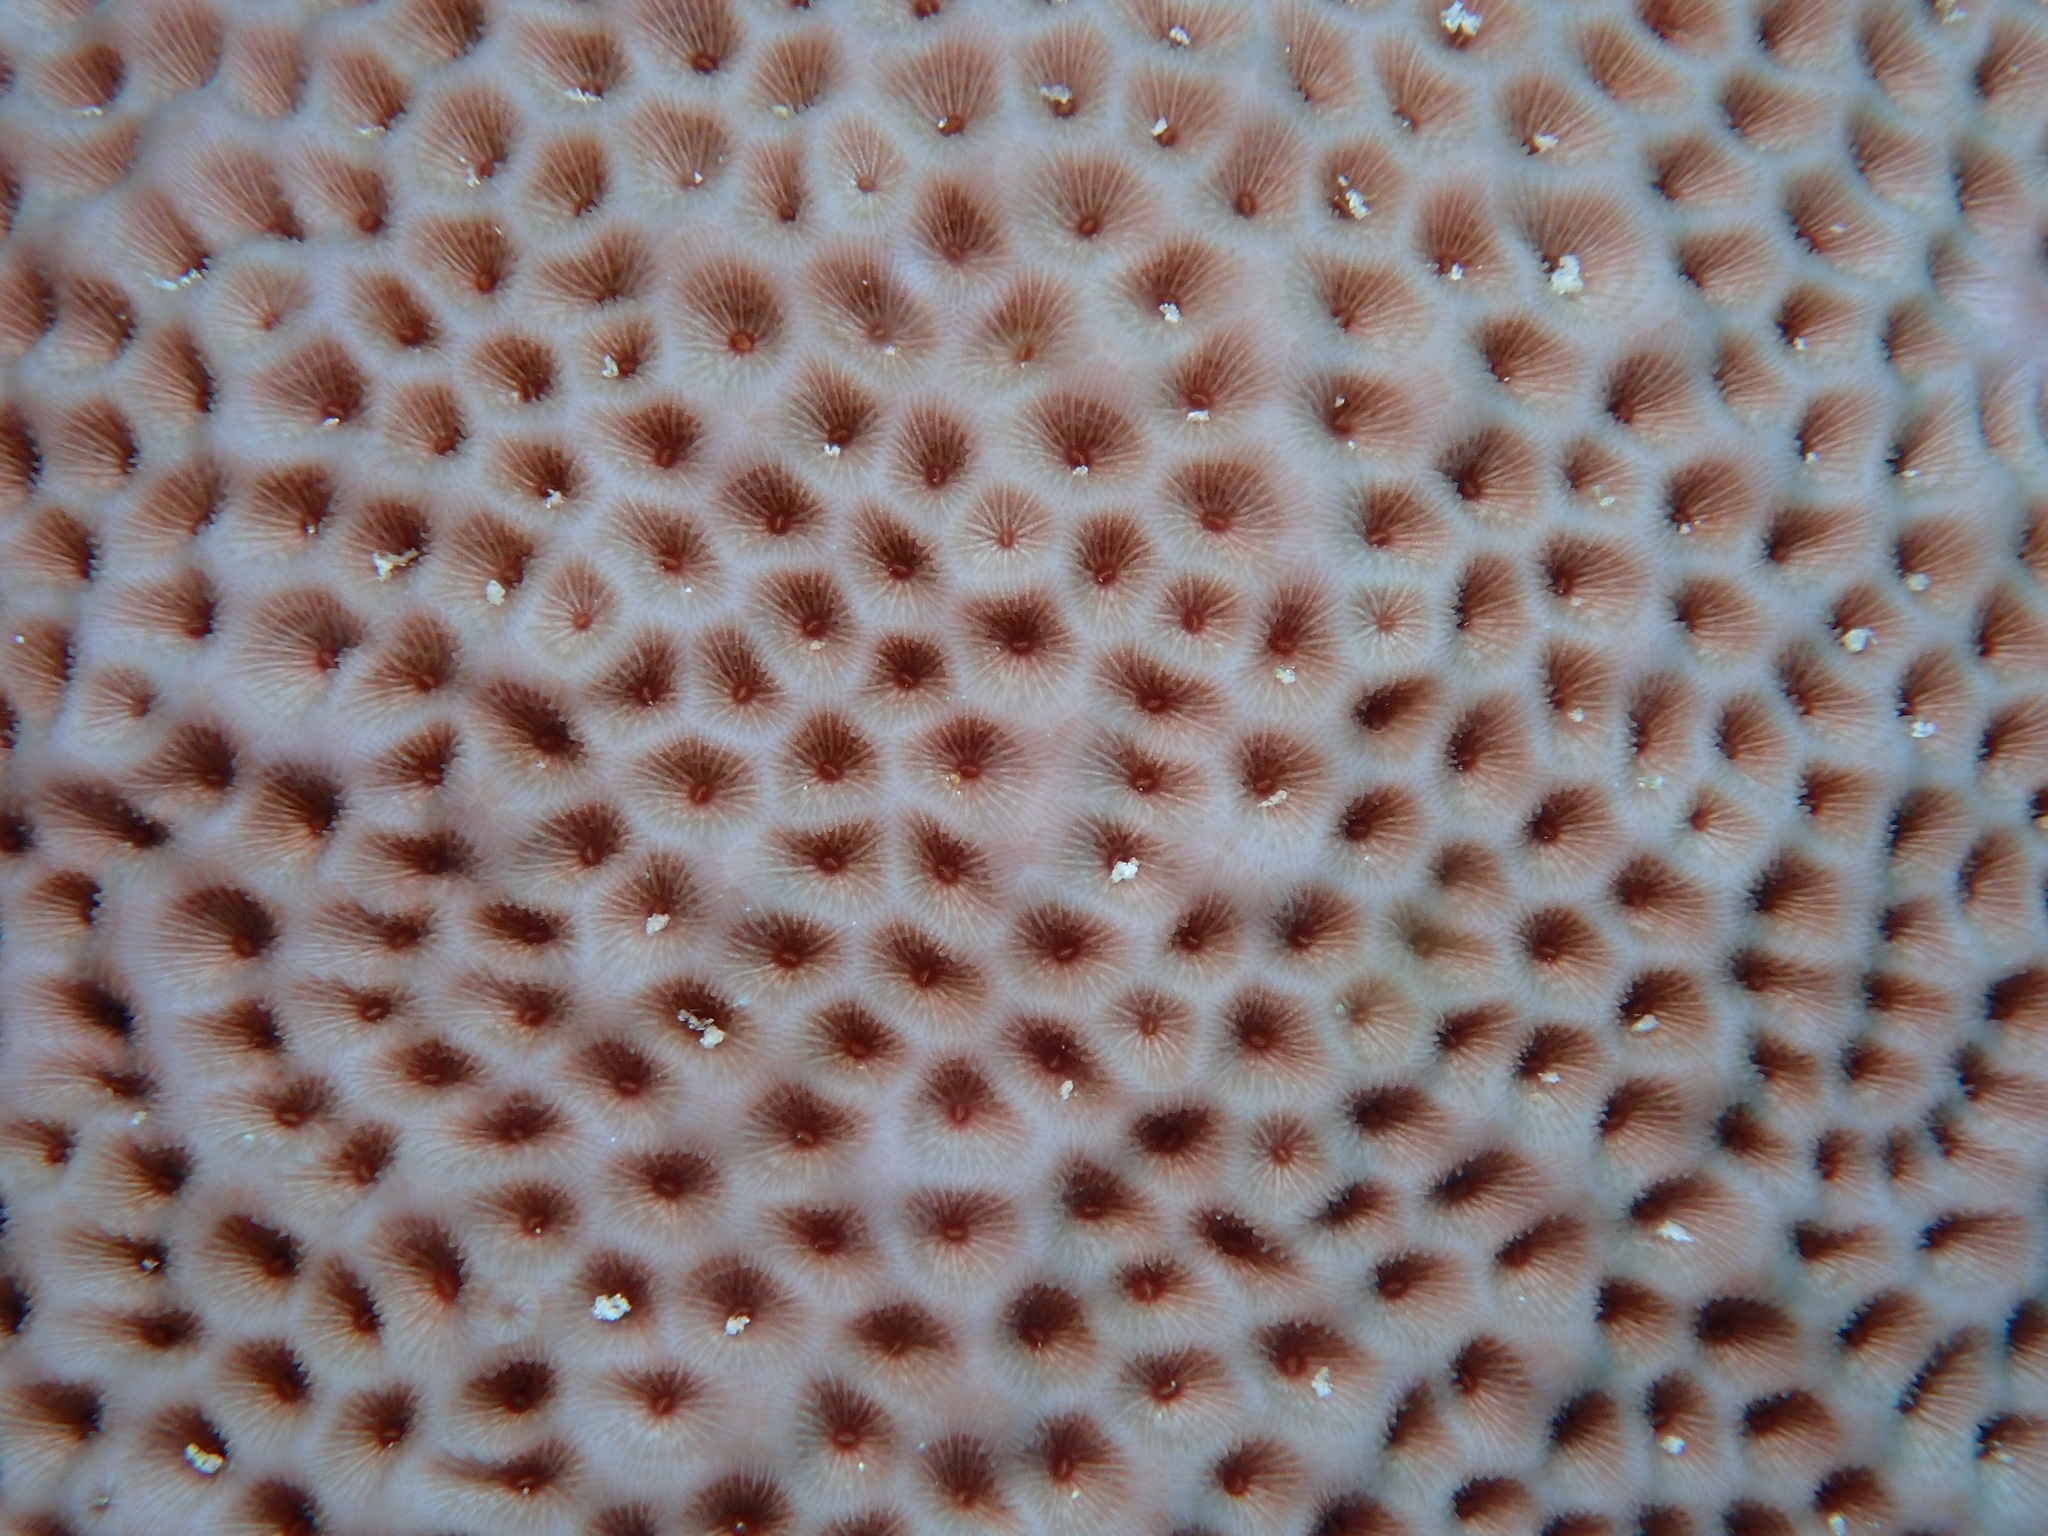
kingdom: Animalia
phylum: Cnidaria
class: Anthozoa
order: Scleractinia
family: Rhizangiidae
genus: Siderastrea
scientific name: Siderastrea siderea
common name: Massive starlet coral
